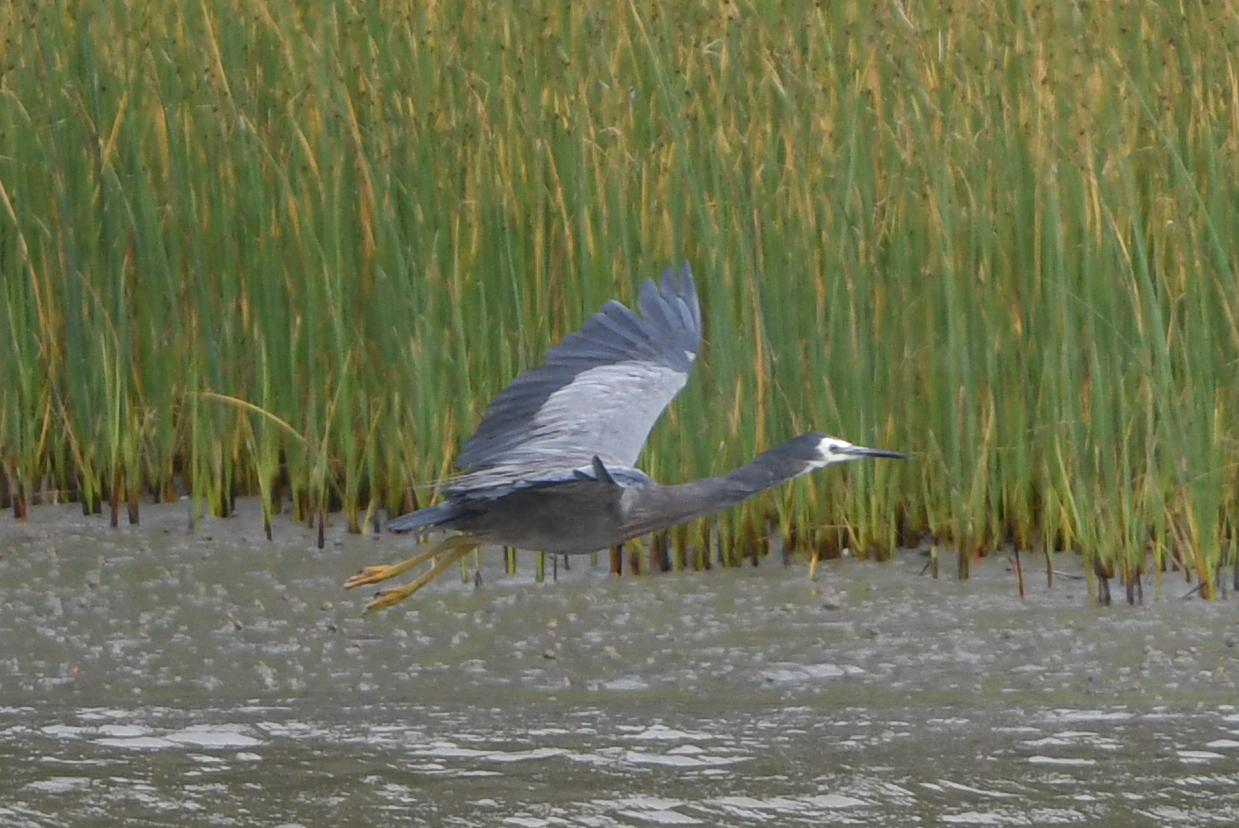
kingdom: Animalia
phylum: Chordata
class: Aves
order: Pelecaniformes
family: Ardeidae
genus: Egretta
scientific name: Egretta novaehollandiae
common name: White-faced heron
